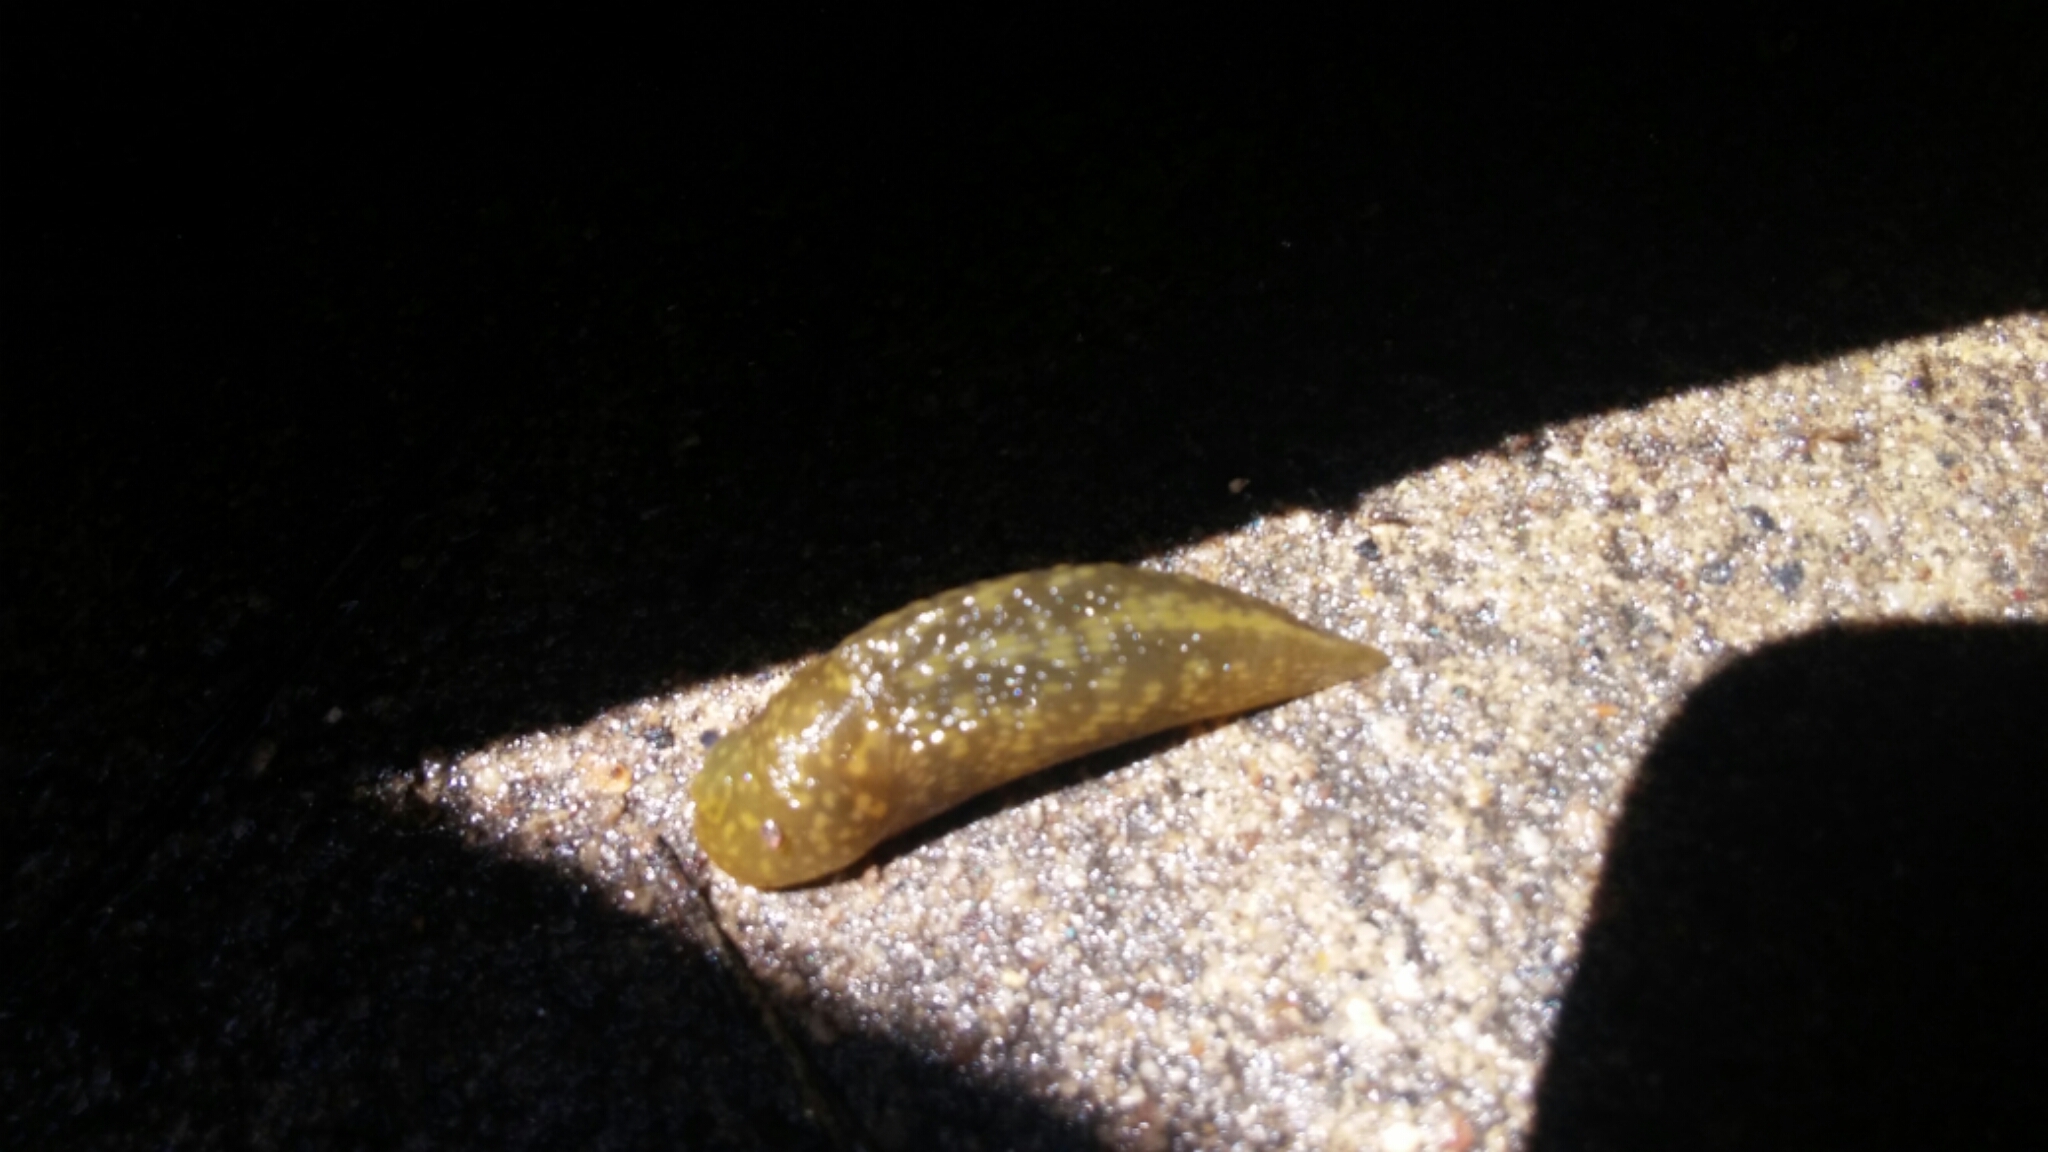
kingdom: Animalia
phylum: Mollusca
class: Gastropoda
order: Stylommatophora
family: Limacidae
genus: Limacus
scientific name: Limacus flavus
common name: Yellow gardenslug
